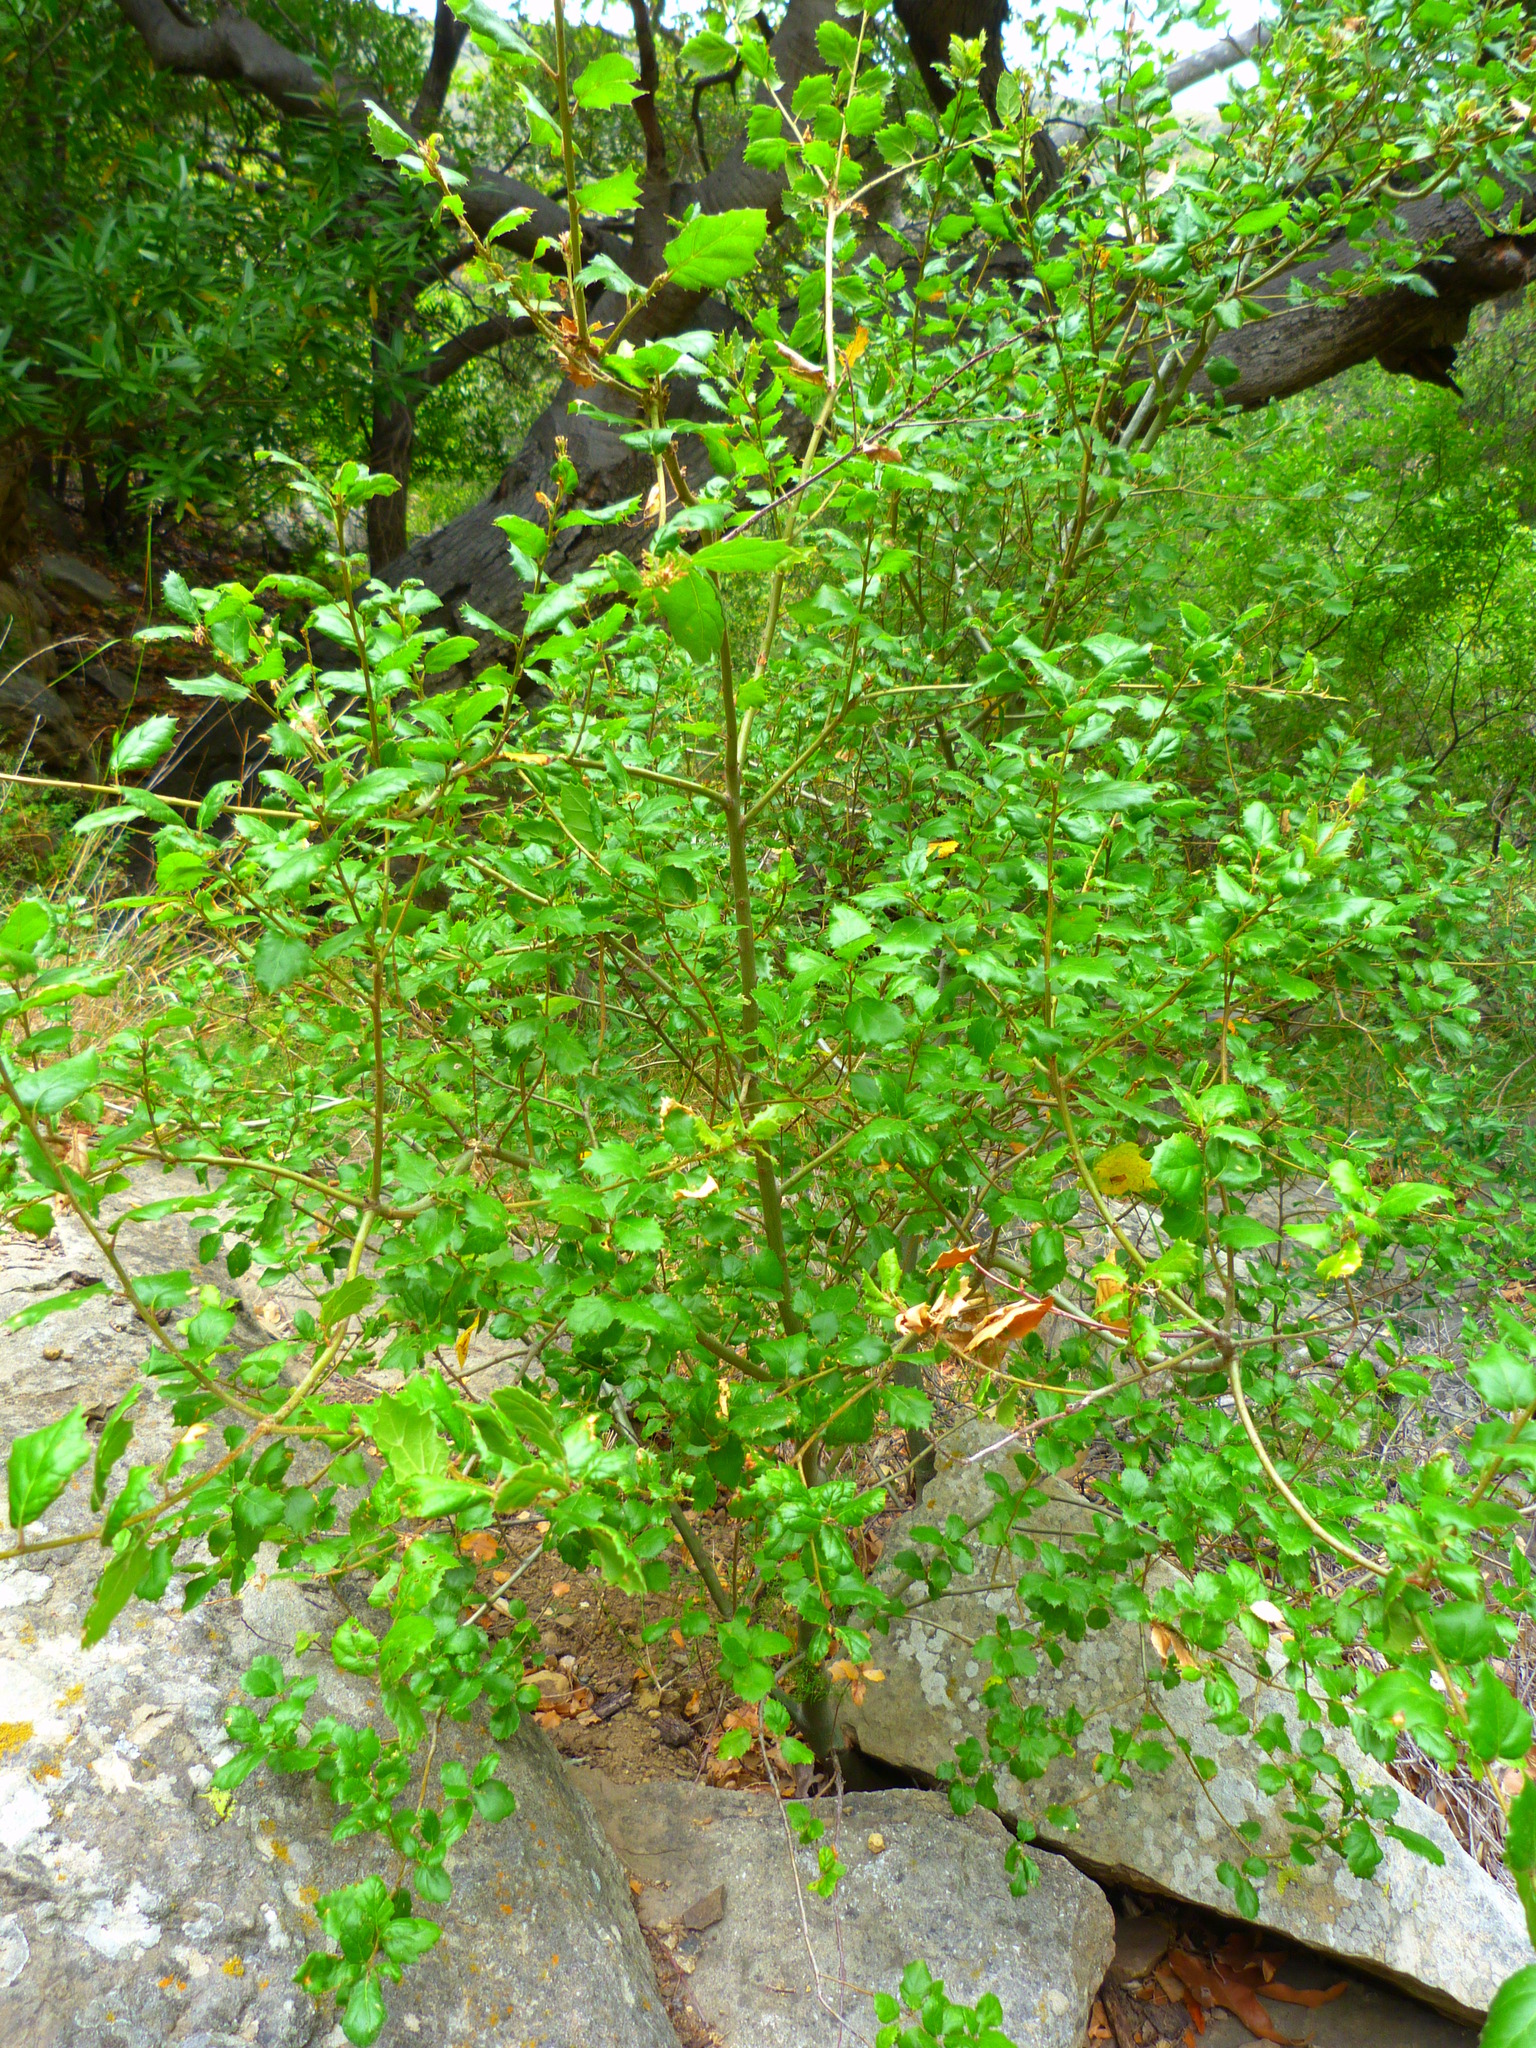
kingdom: Plantae
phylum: Tracheophyta
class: Magnoliopsida
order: Fagales
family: Fagaceae
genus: Quercus
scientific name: Quercus agrifolia
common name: California live oak
